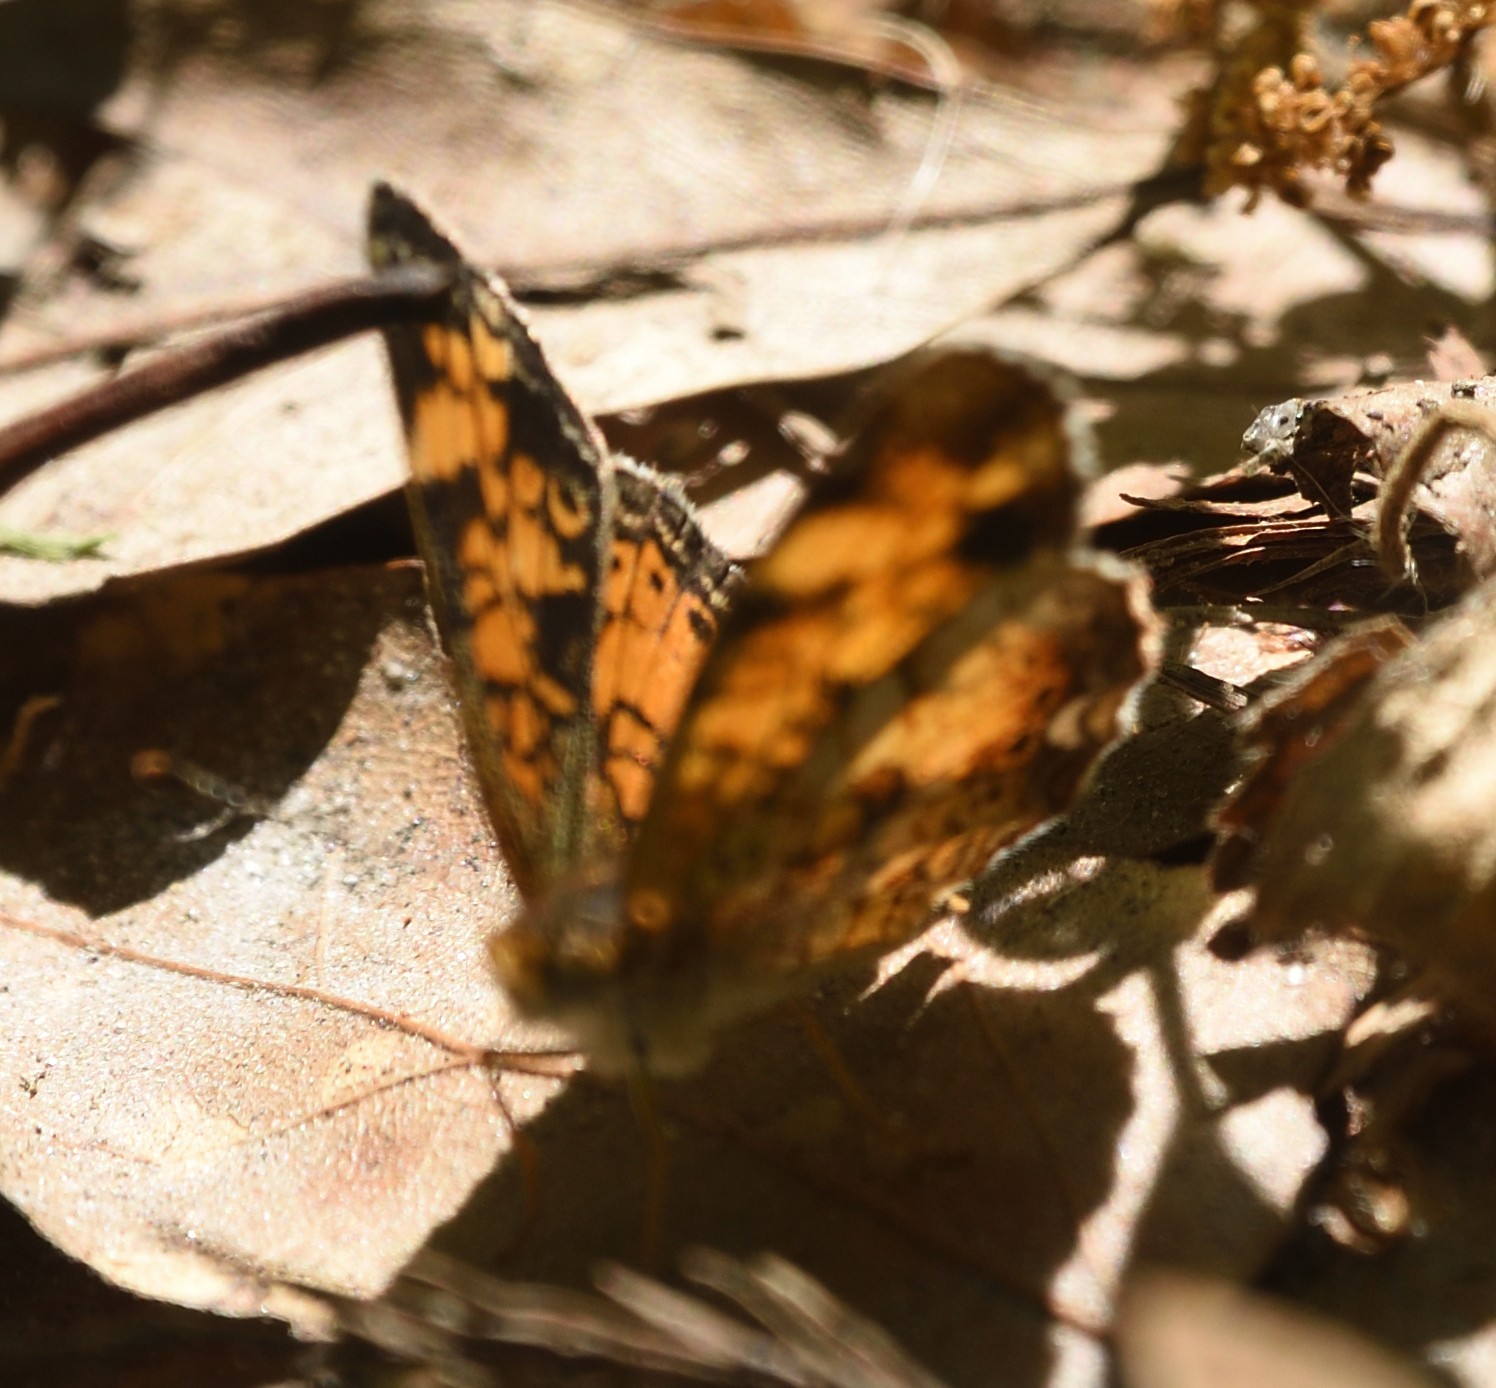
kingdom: Animalia
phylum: Arthropoda
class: Insecta
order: Lepidoptera
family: Nymphalidae
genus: Phyciodes
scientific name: Phyciodes tharos
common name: Pearl crescent
